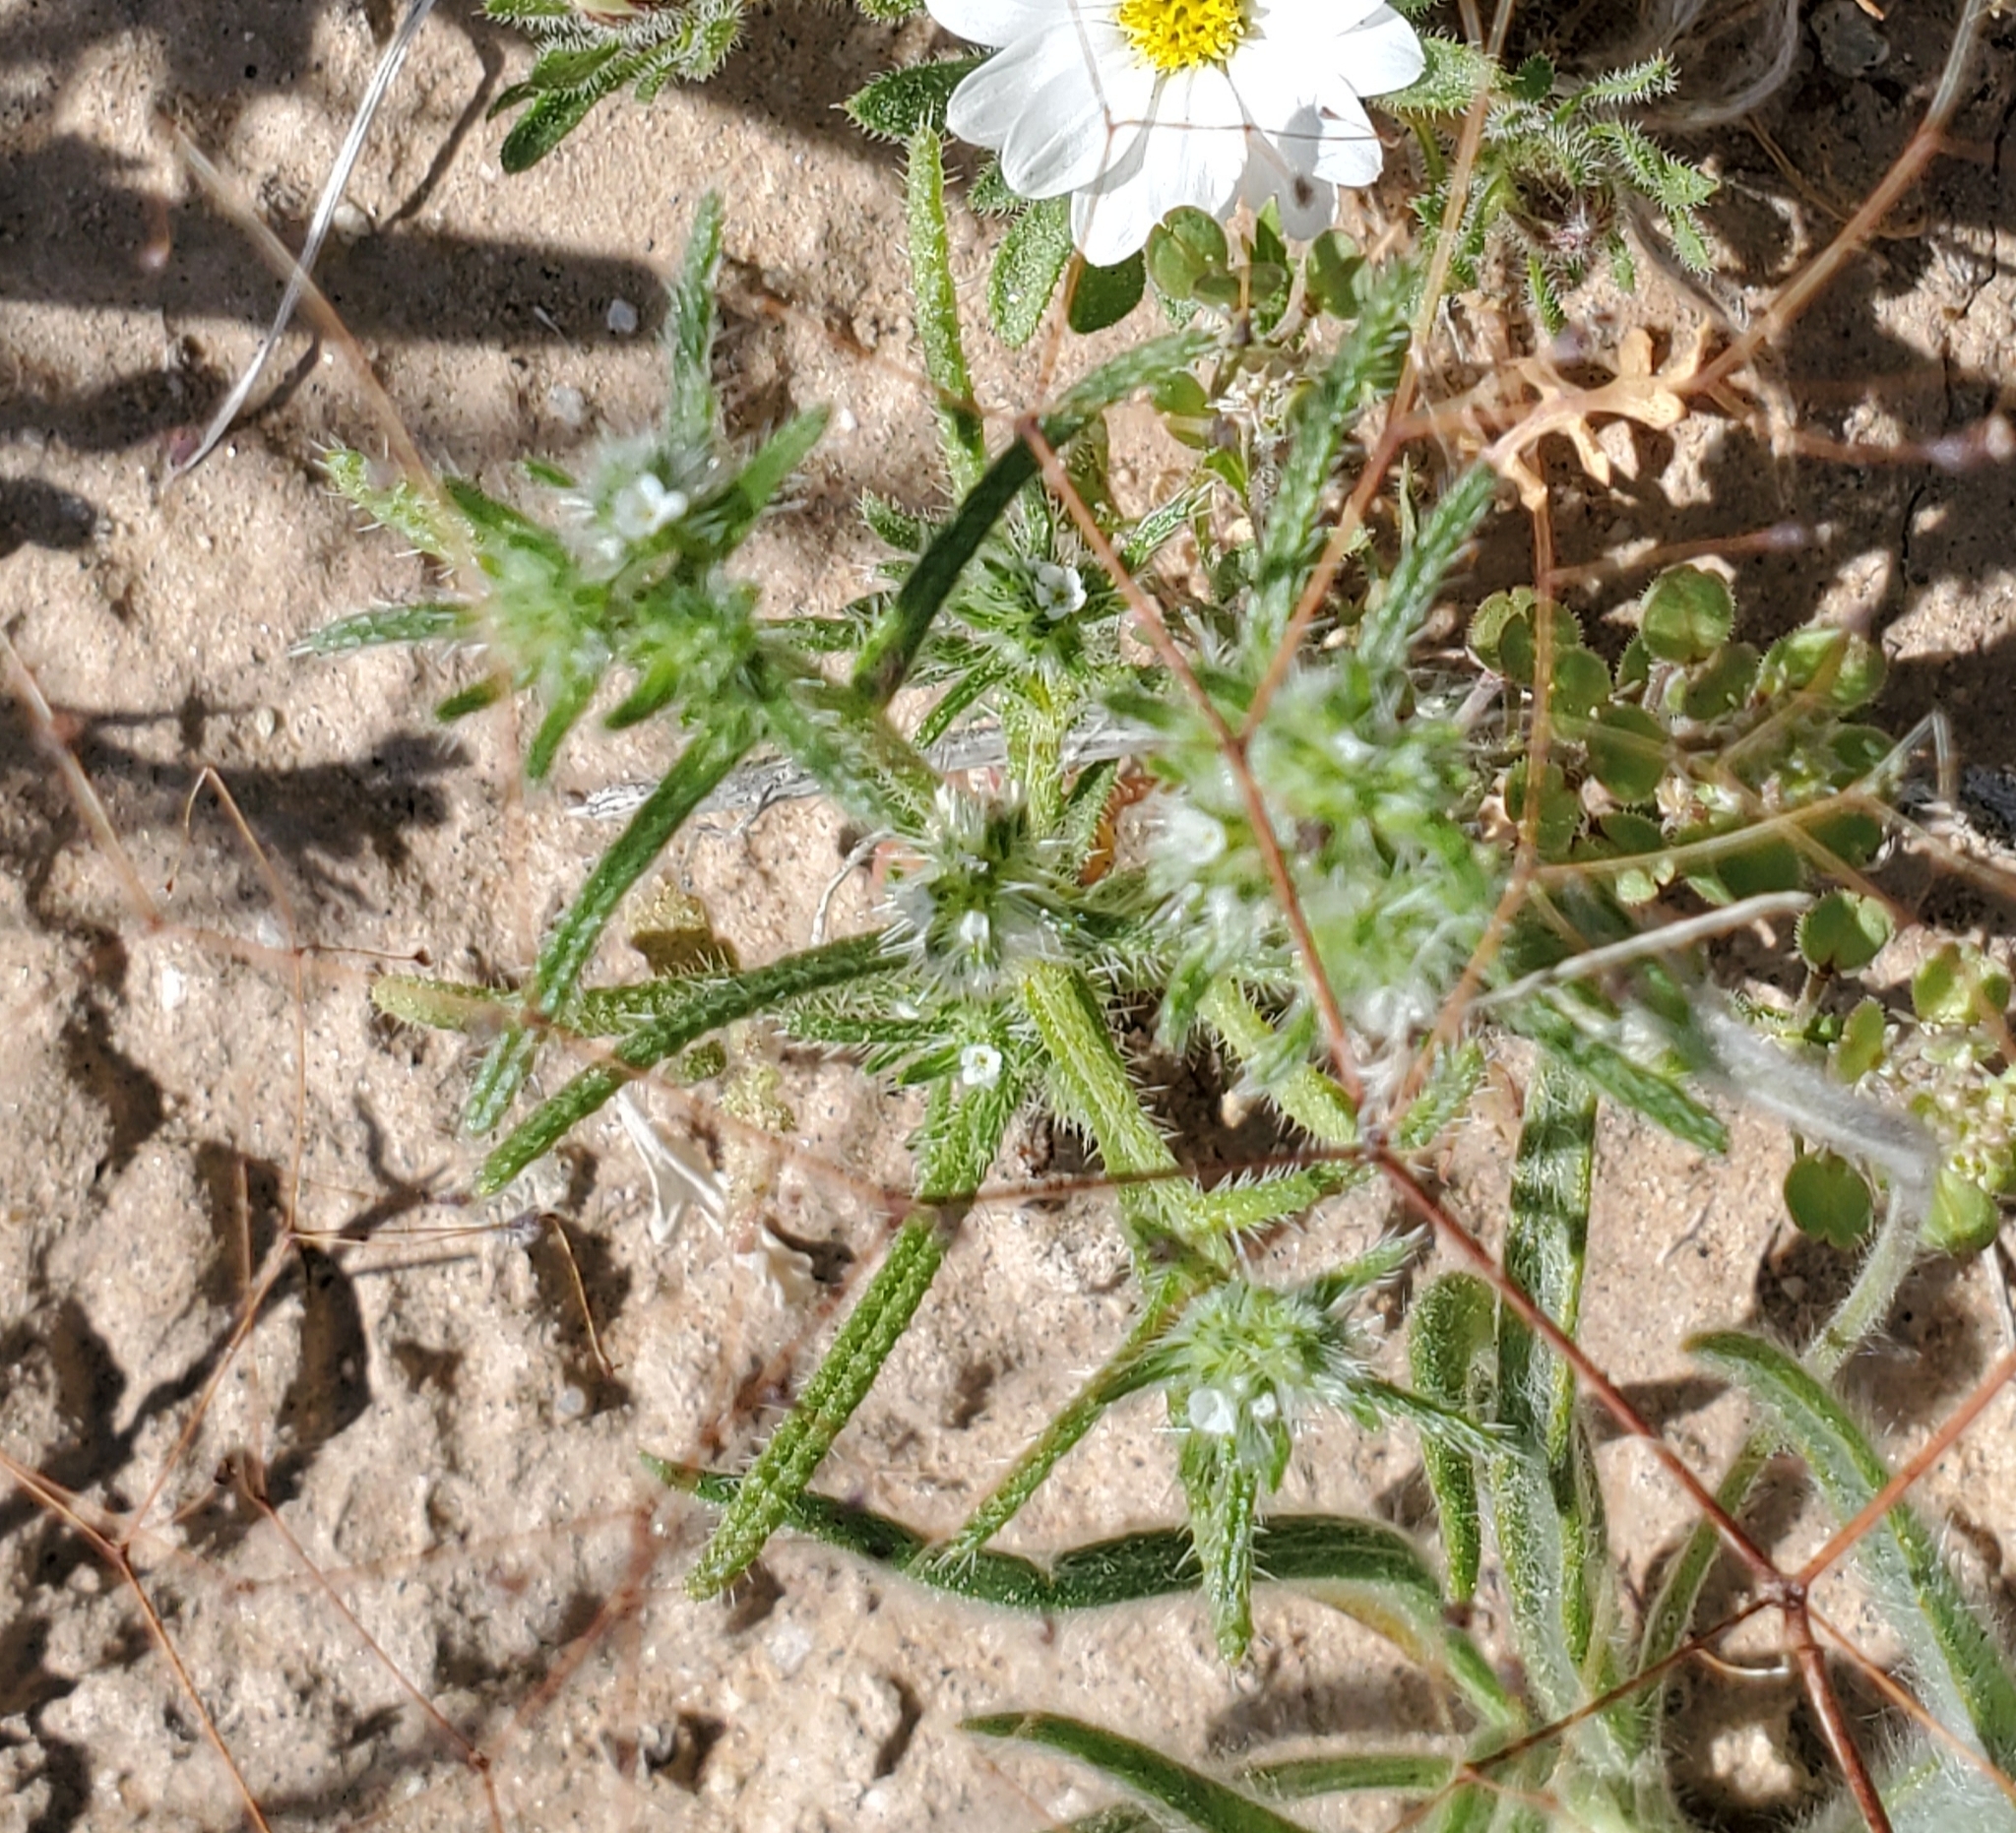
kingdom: Plantae
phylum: Tracheophyta
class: Magnoliopsida
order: Boraginales
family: Boraginaceae
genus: Cryptantha
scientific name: Cryptantha maritima
